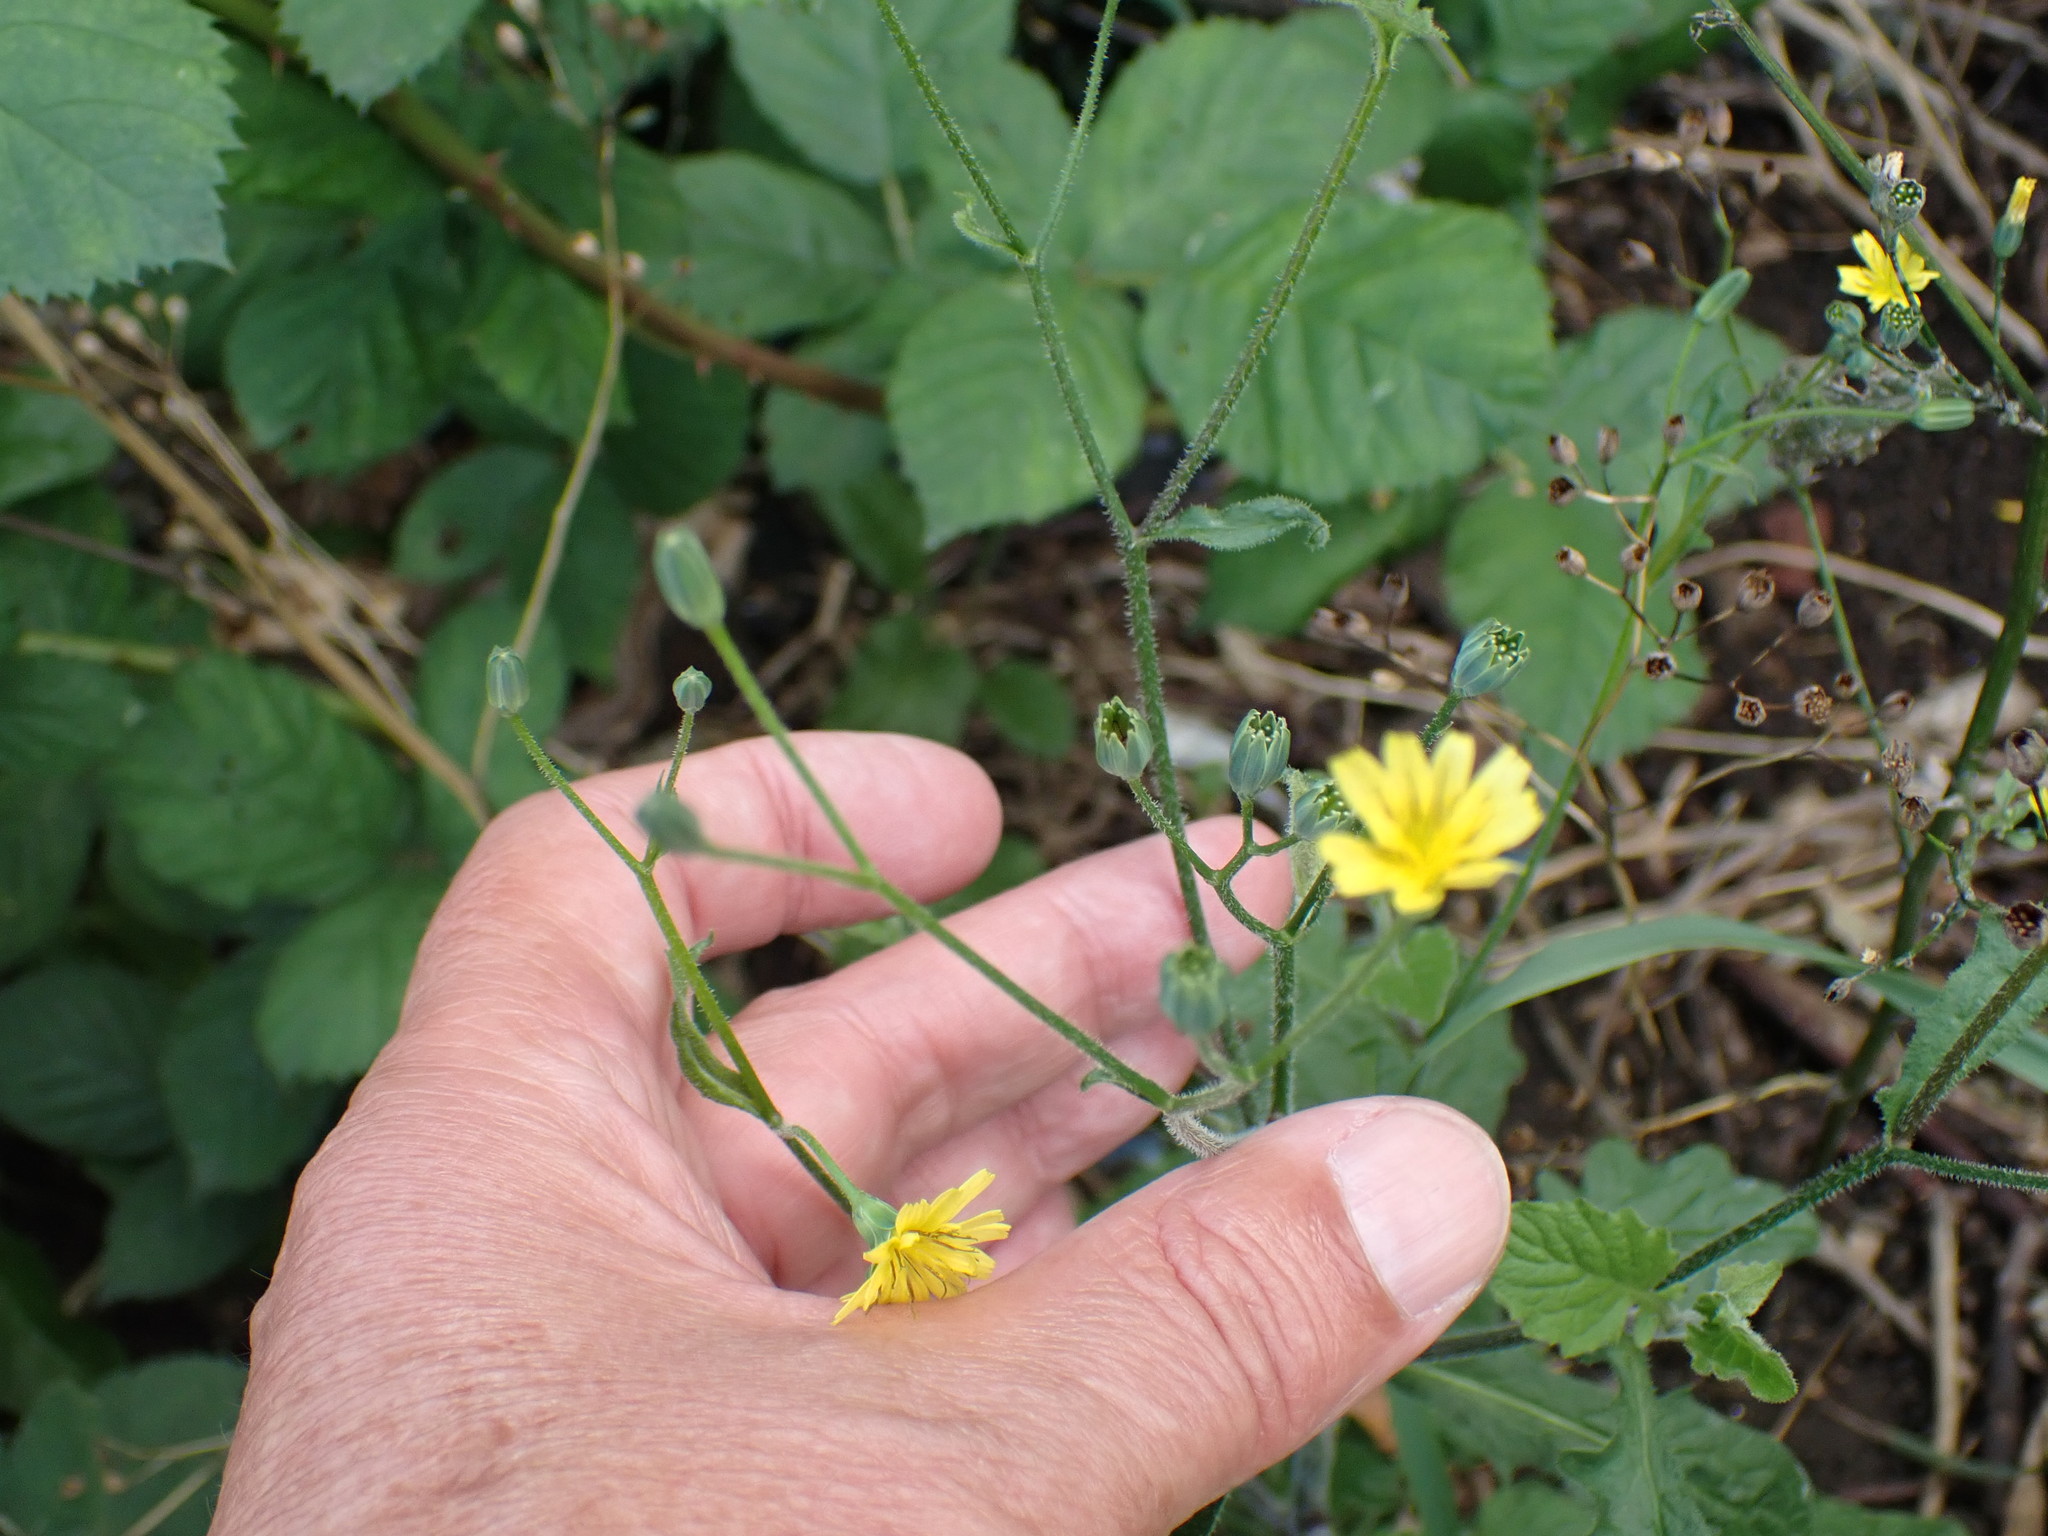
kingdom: Plantae
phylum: Tracheophyta
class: Magnoliopsida
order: Asterales
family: Asteraceae
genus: Lapsana
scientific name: Lapsana communis
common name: Nipplewort
